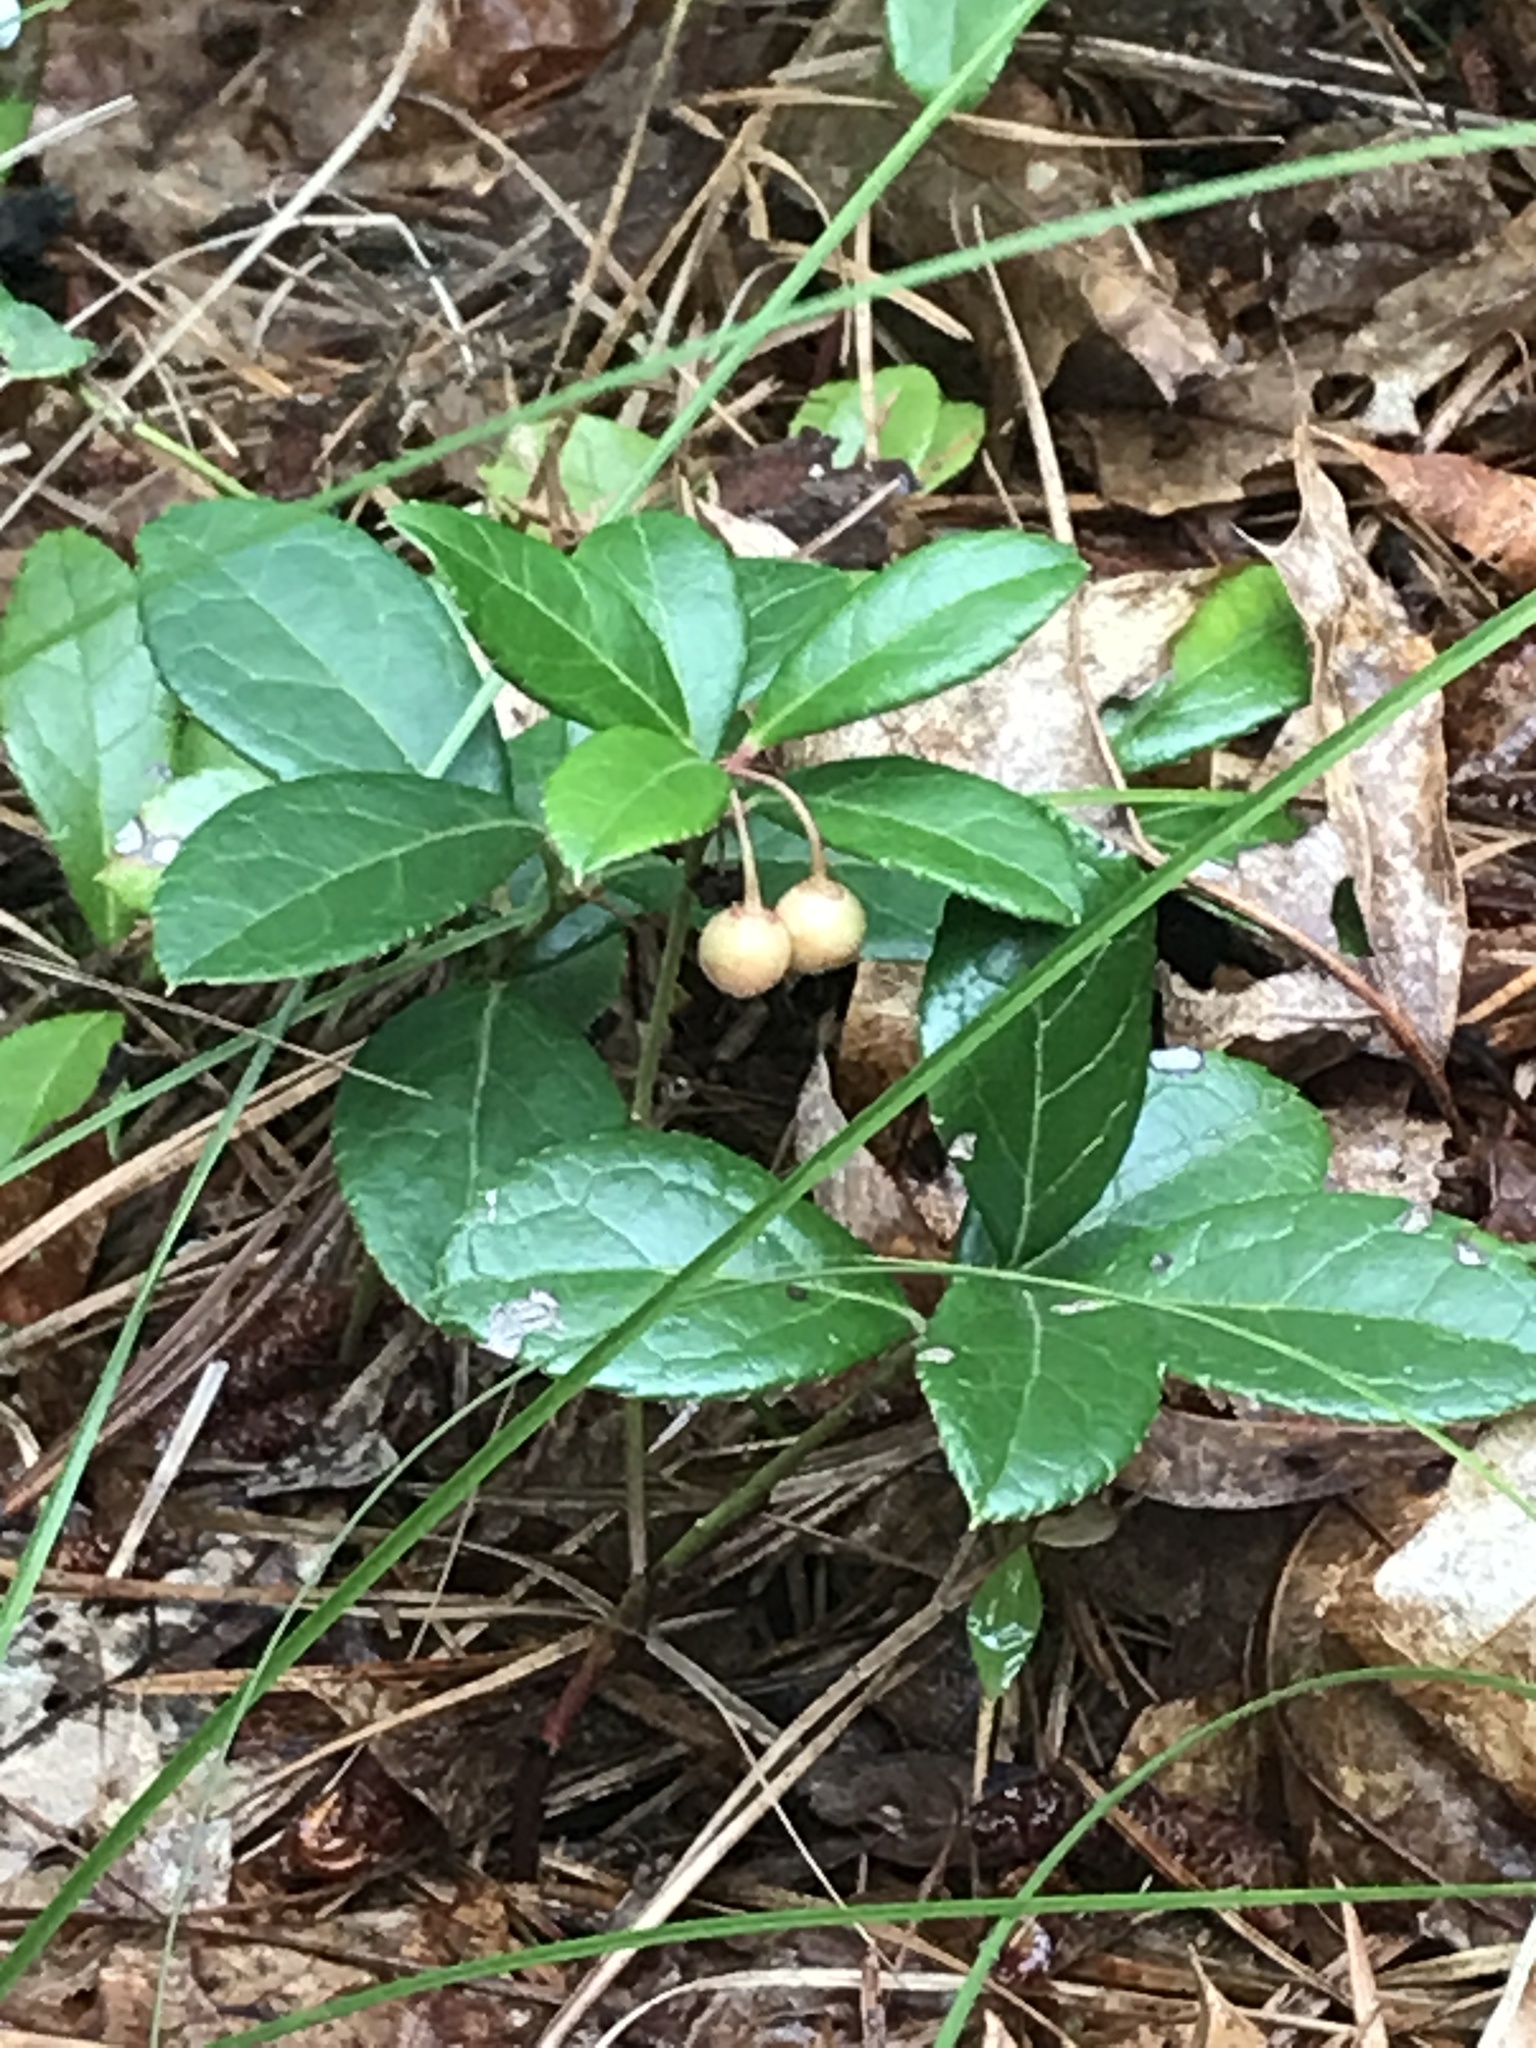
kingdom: Plantae
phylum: Tracheophyta
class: Magnoliopsida
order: Ericales
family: Ericaceae
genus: Gaultheria
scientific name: Gaultheria procumbens
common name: Checkerberry
